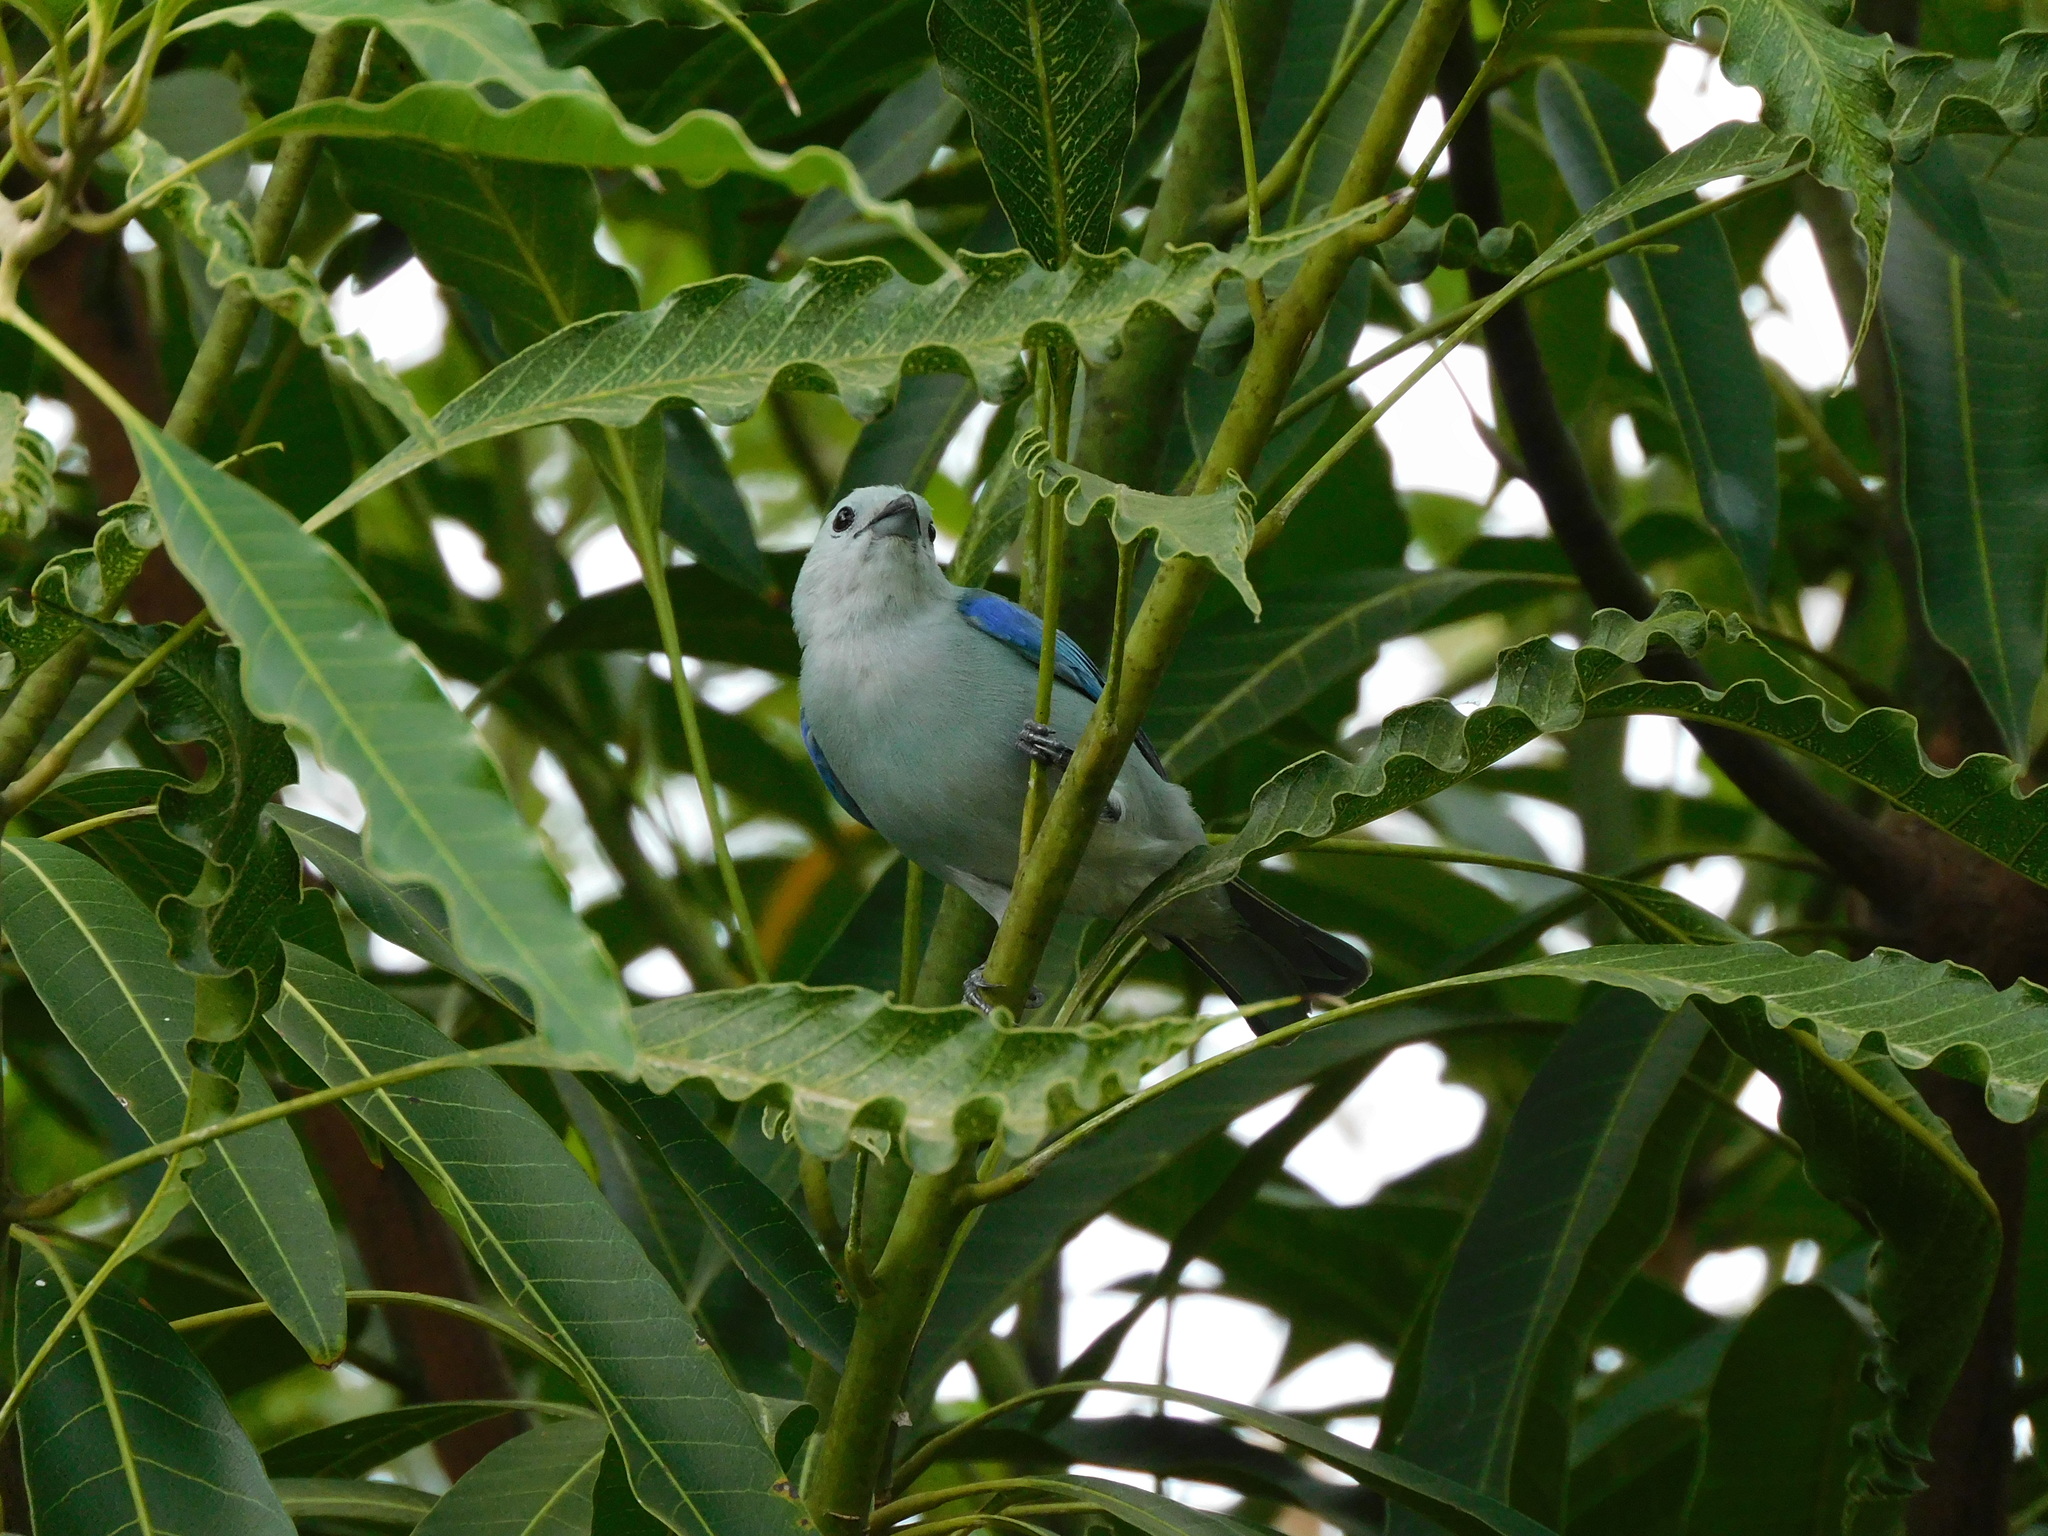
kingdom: Animalia
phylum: Chordata
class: Aves
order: Passeriformes
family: Thraupidae
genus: Thraupis
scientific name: Thraupis episcopus
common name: Blue-grey tanager
